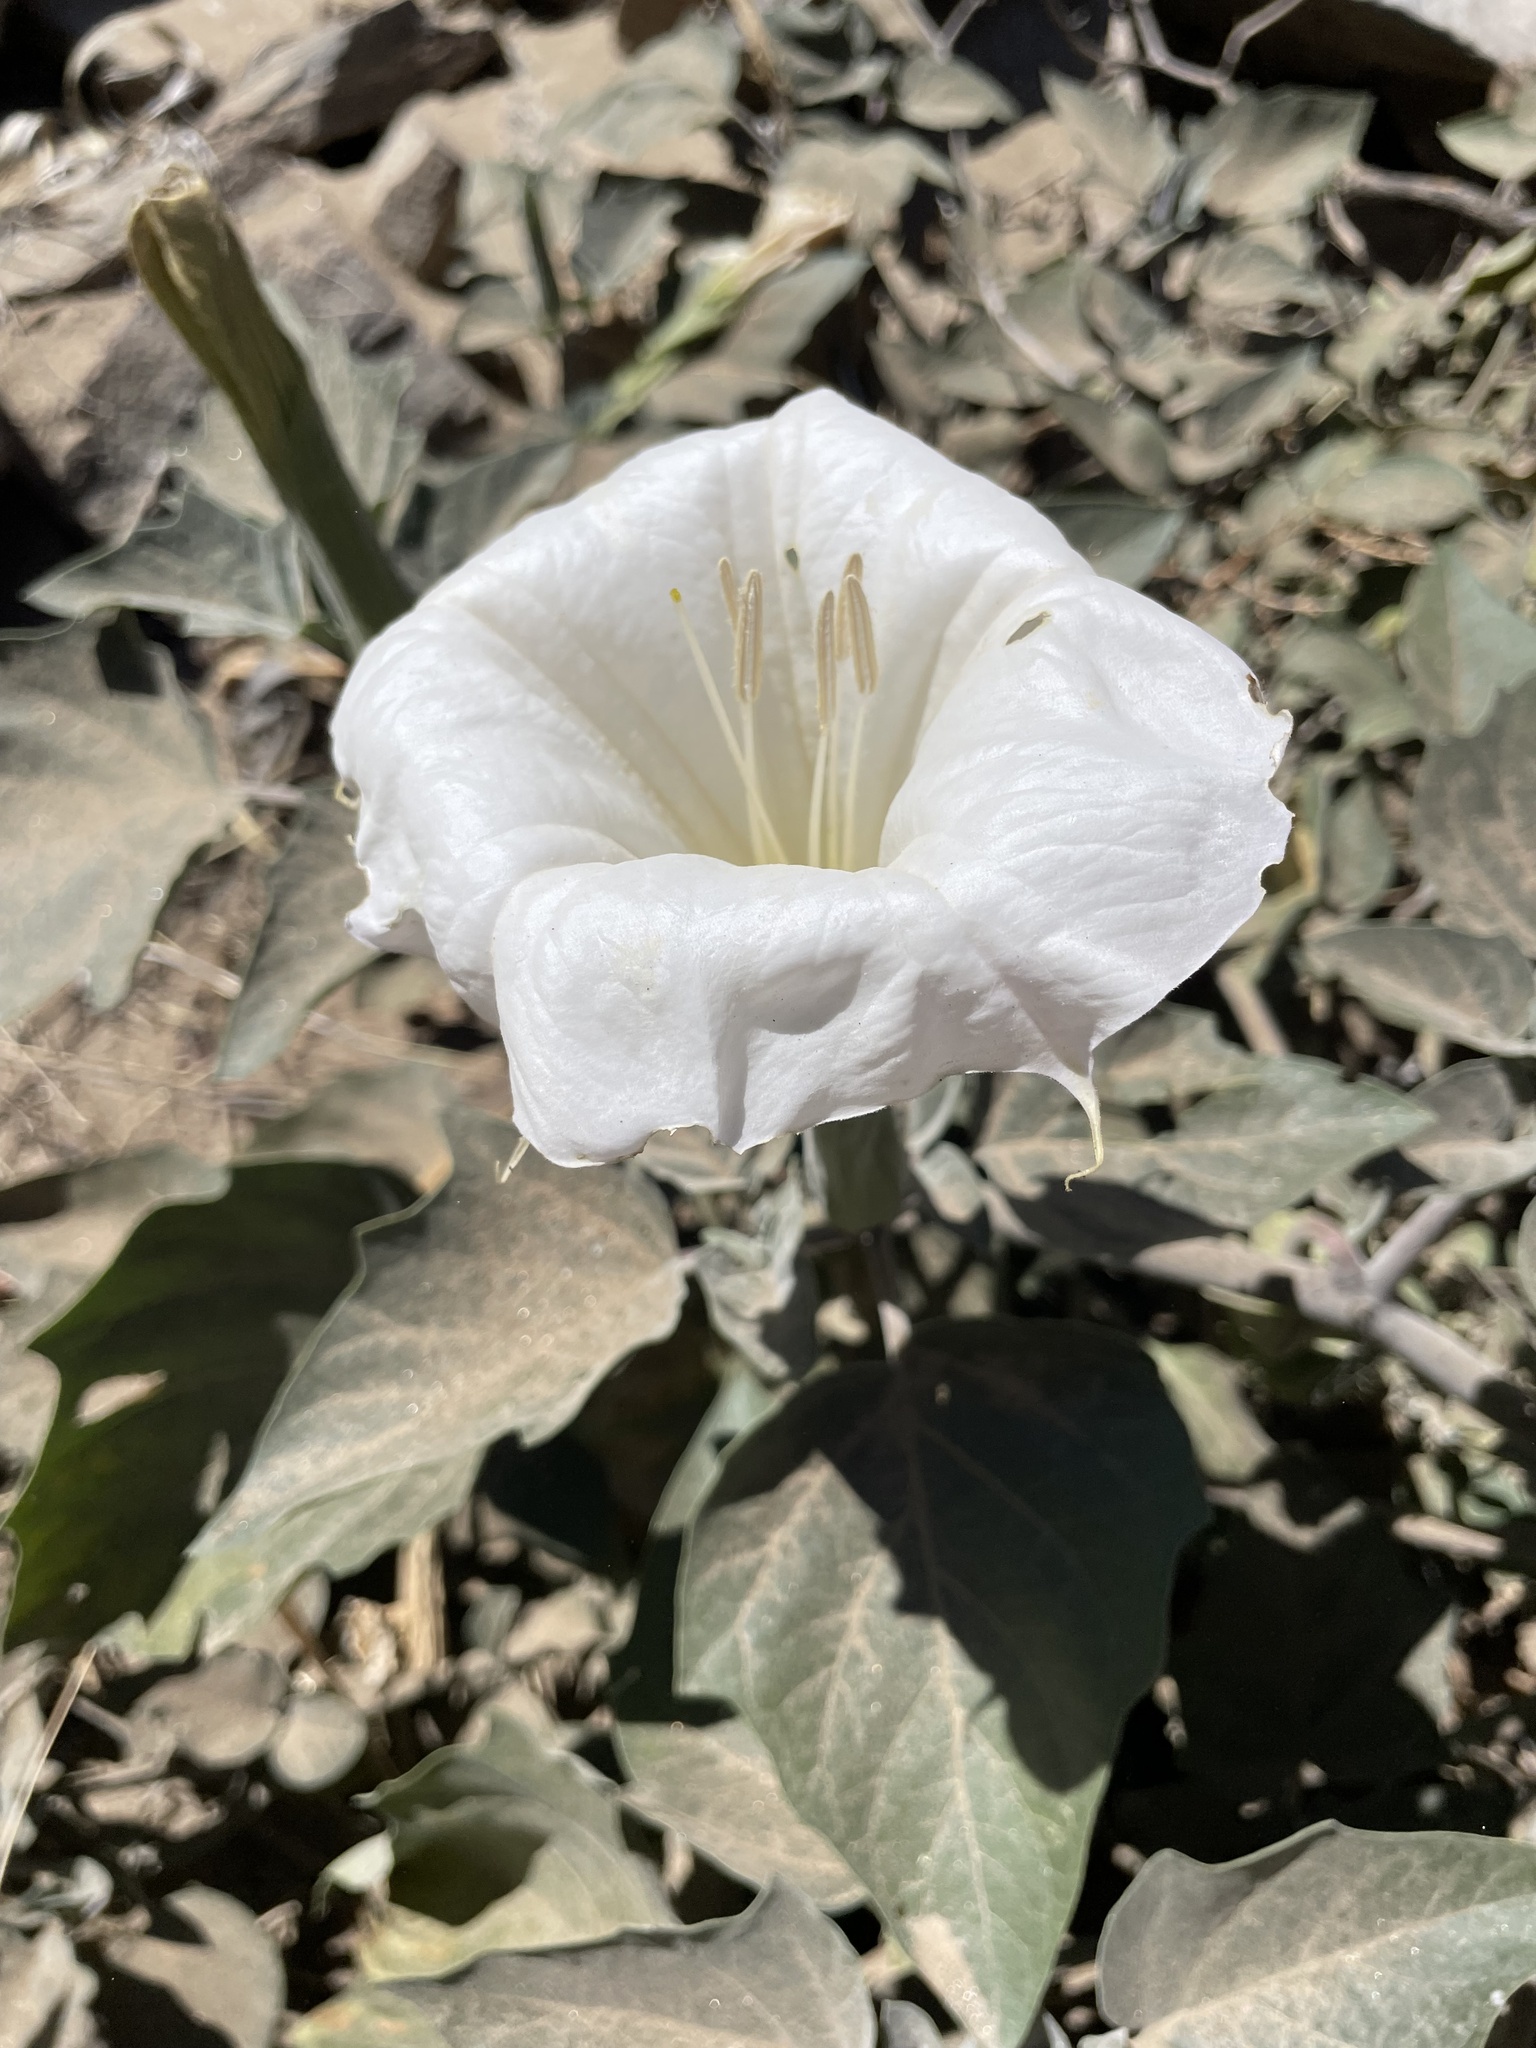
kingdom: Plantae
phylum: Tracheophyta
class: Magnoliopsida
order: Solanales
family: Solanaceae
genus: Datura
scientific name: Datura wrightii
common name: Sacred thorn-apple
